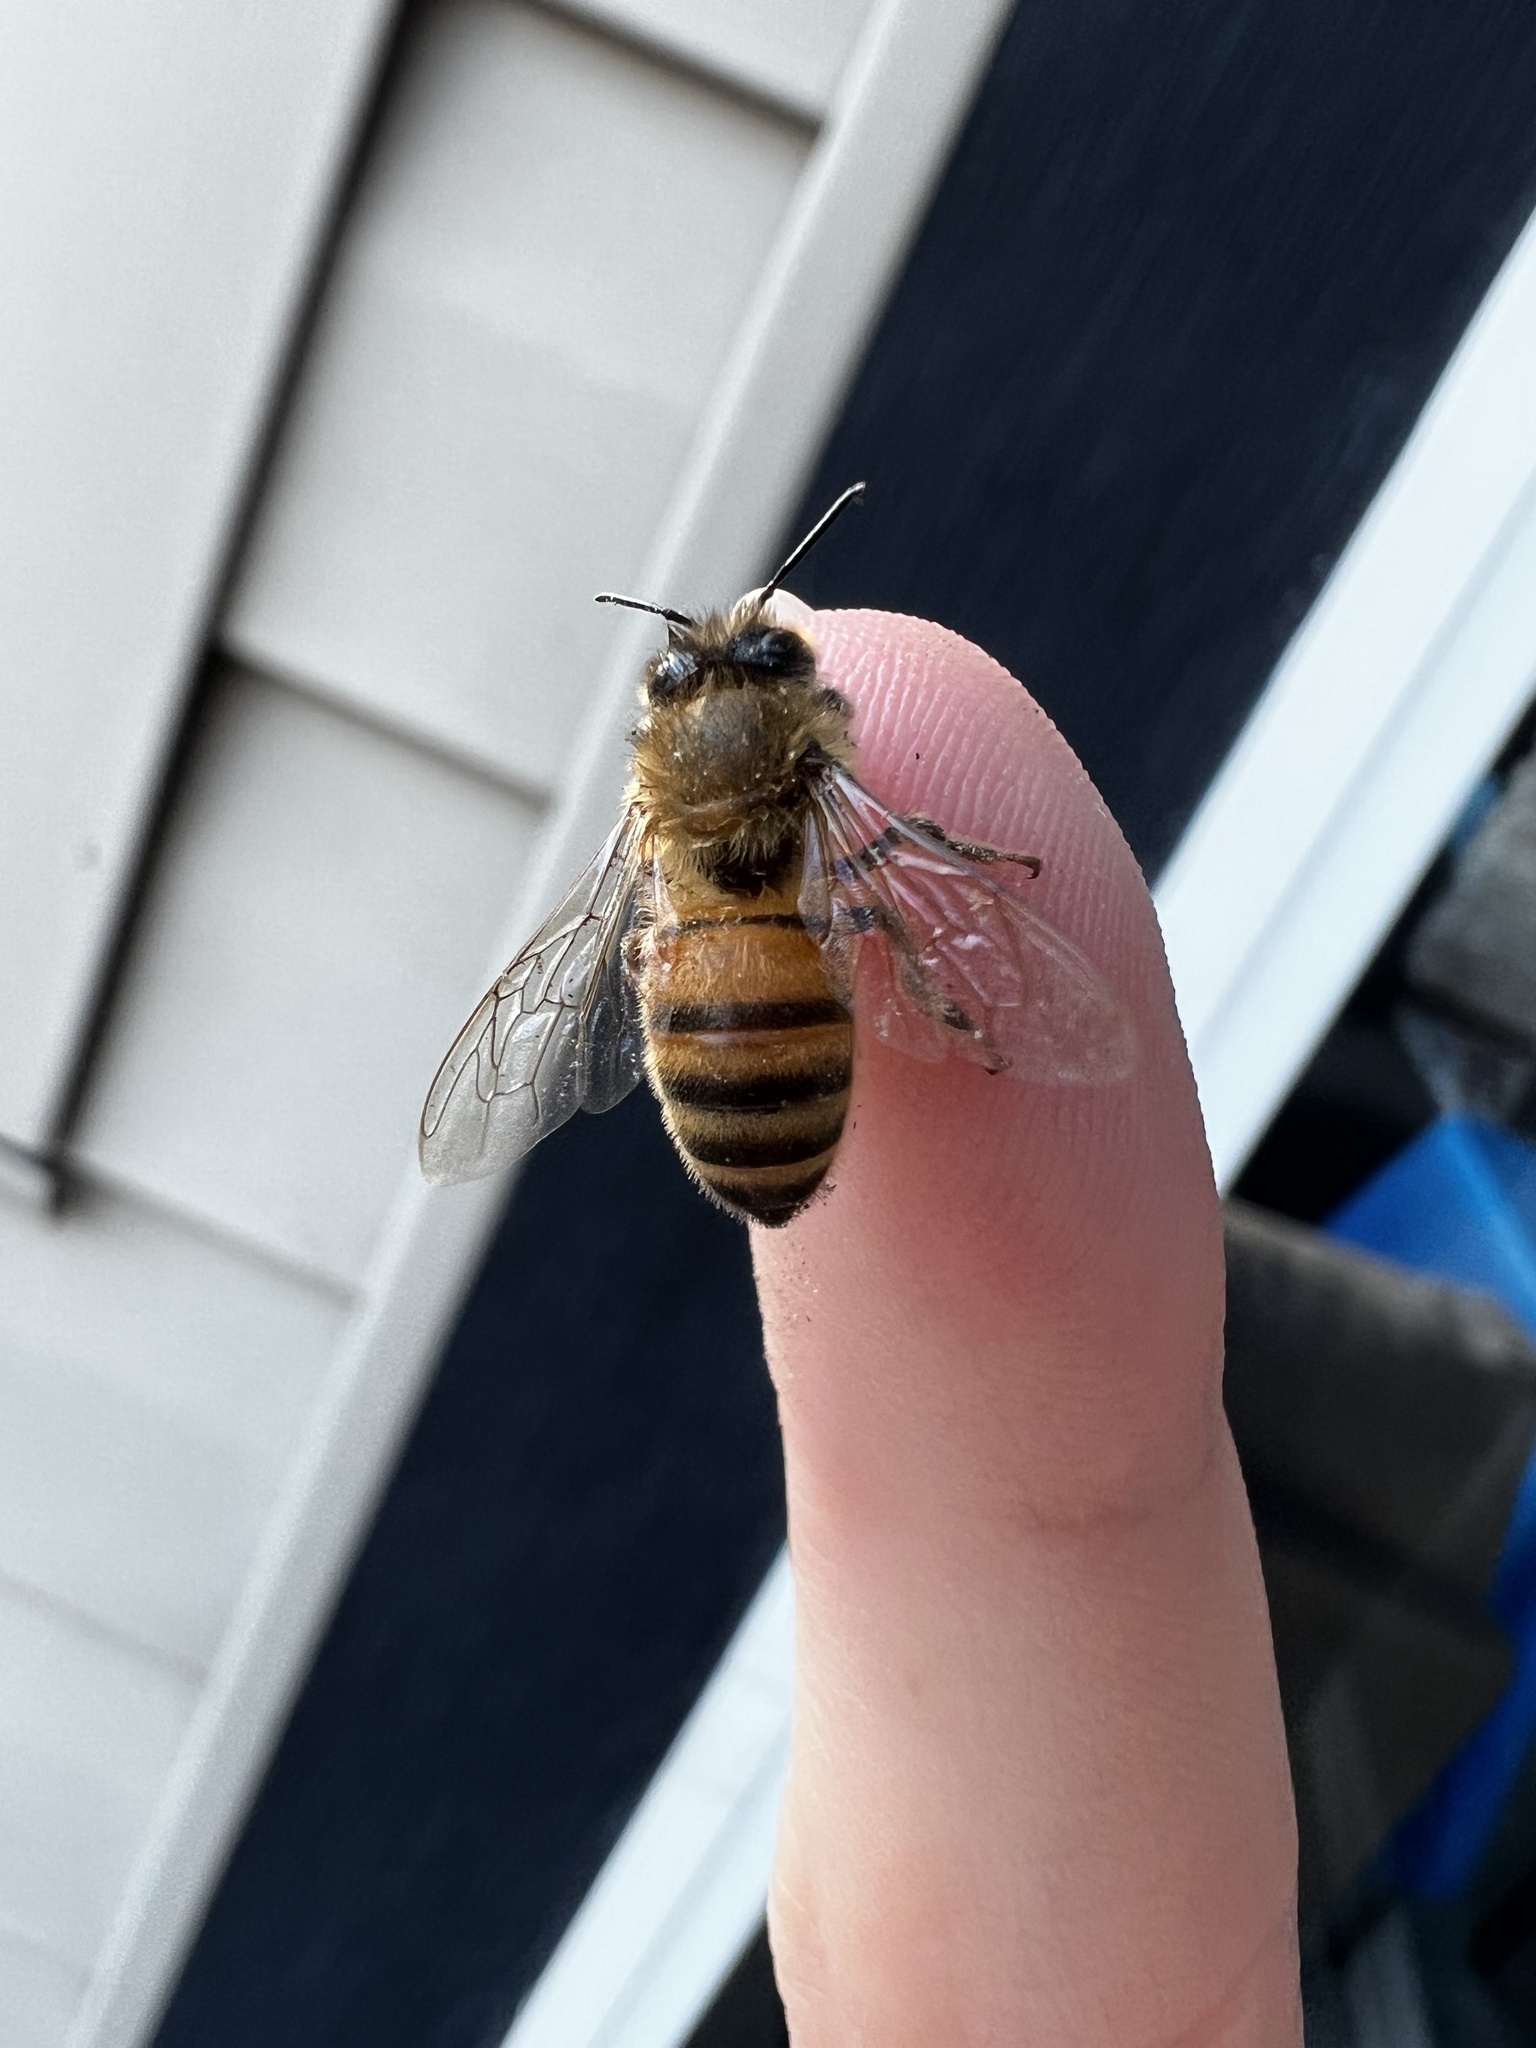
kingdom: Animalia
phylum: Arthropoda
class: Insecta
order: Hymenoptera
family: Apidae
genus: Apis
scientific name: Apis mellifera
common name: Honey bee
